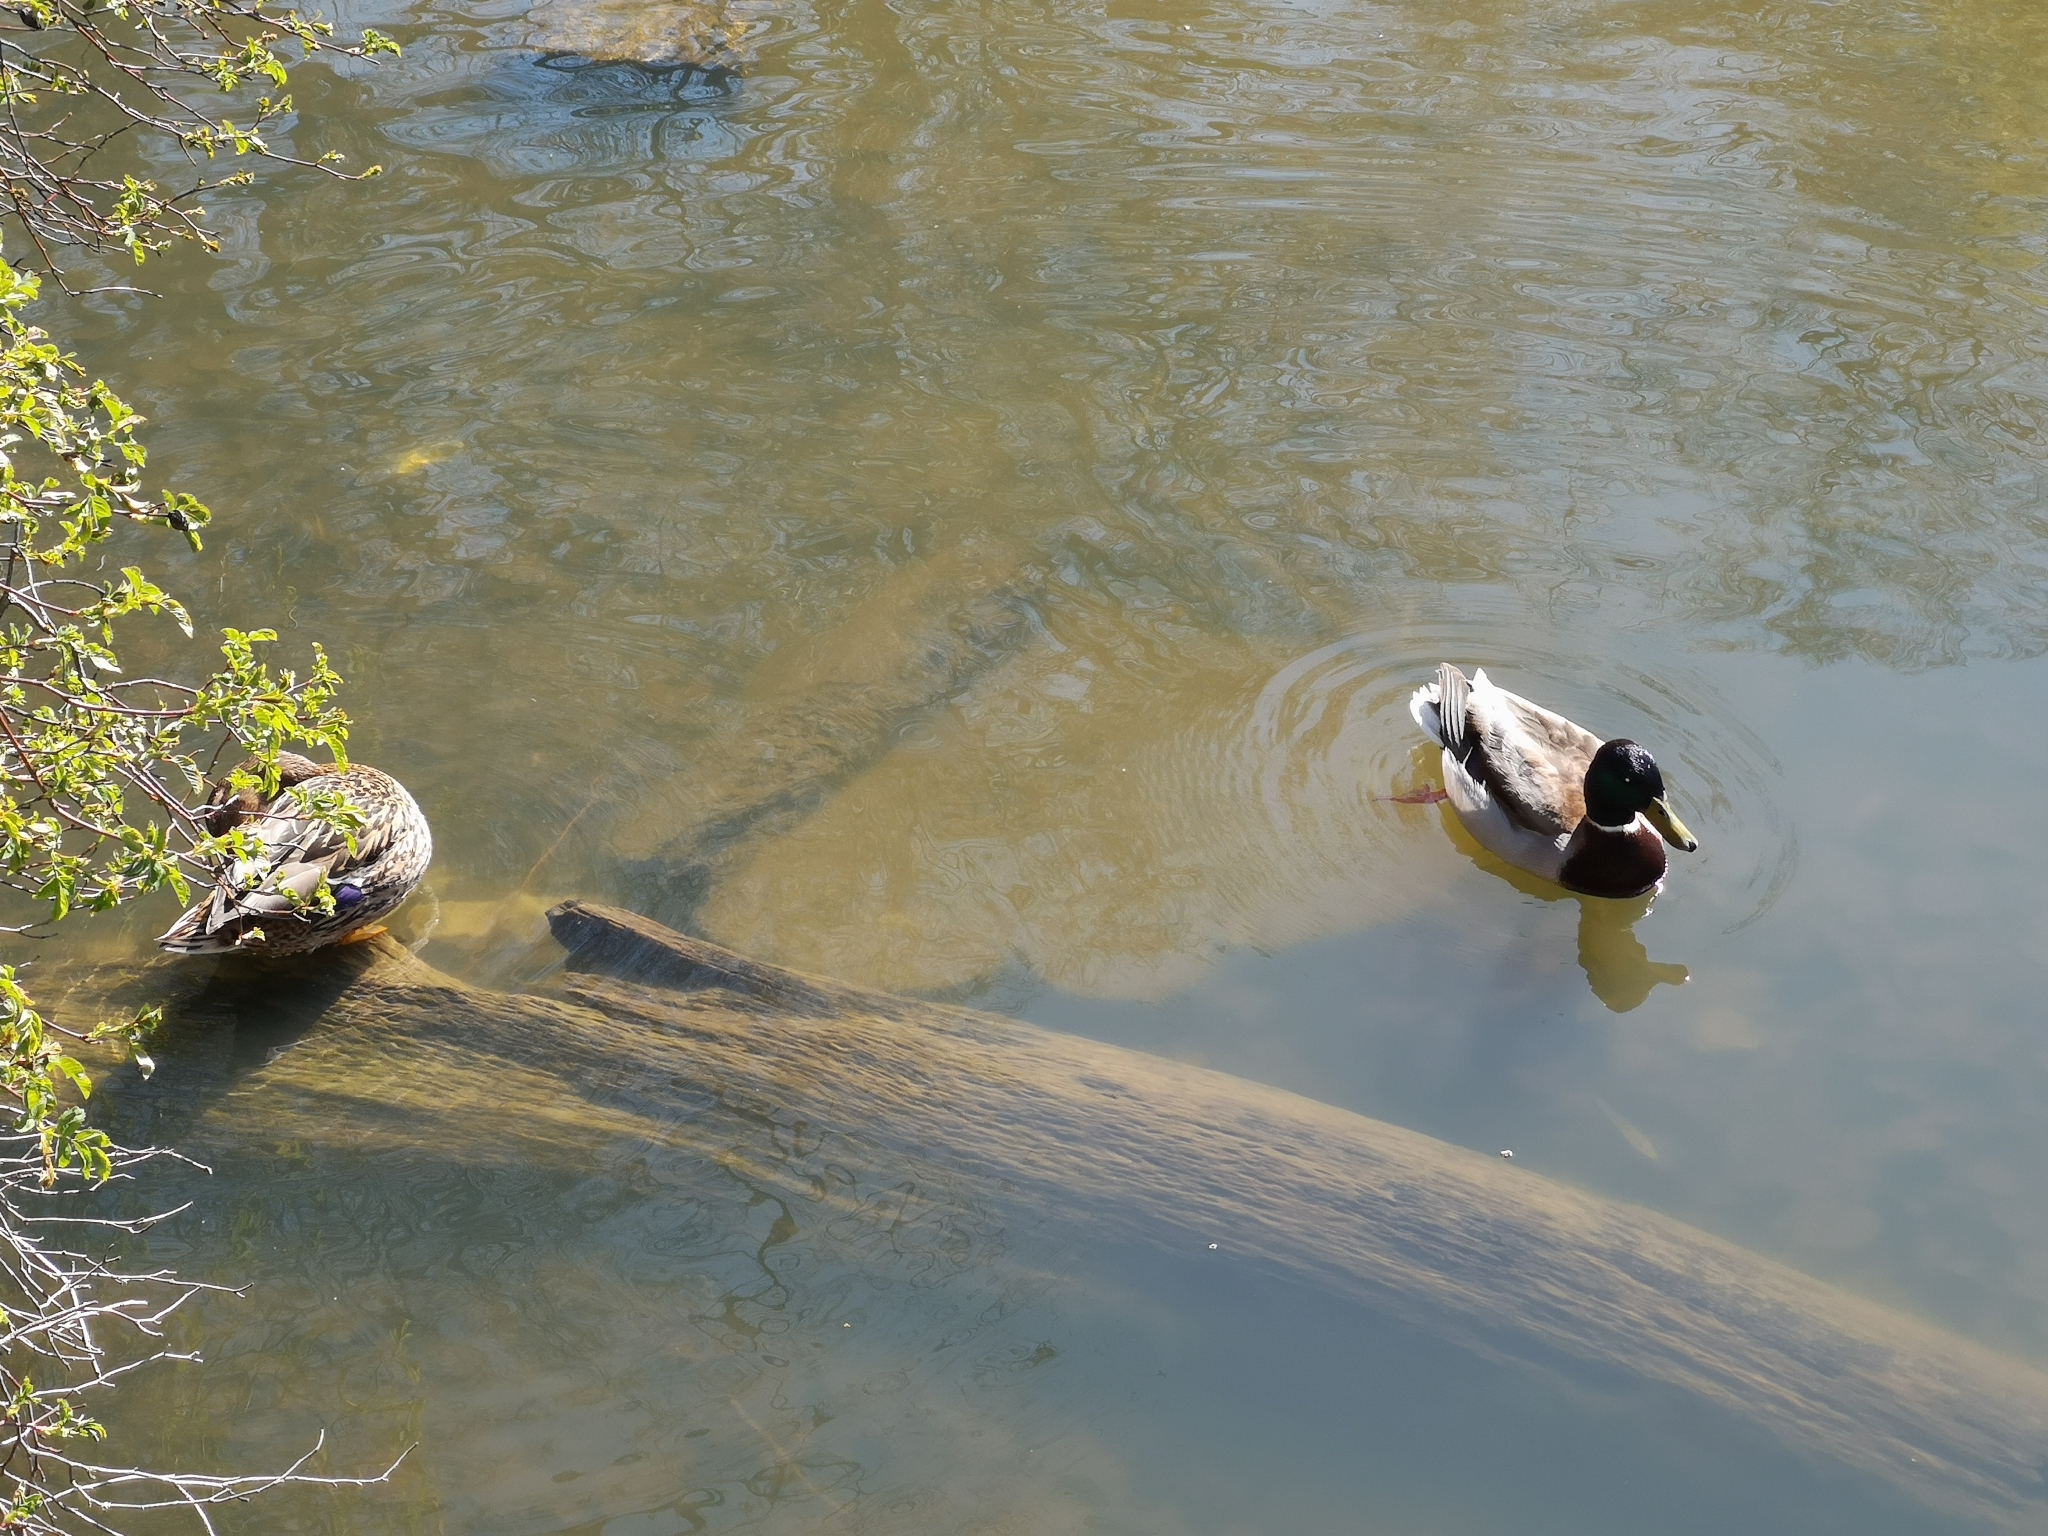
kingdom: Animalia
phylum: Chordata
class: Aves
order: Anseriformes
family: Anatidae
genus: Anas
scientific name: Anas platyrhynchos
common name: Mallard
